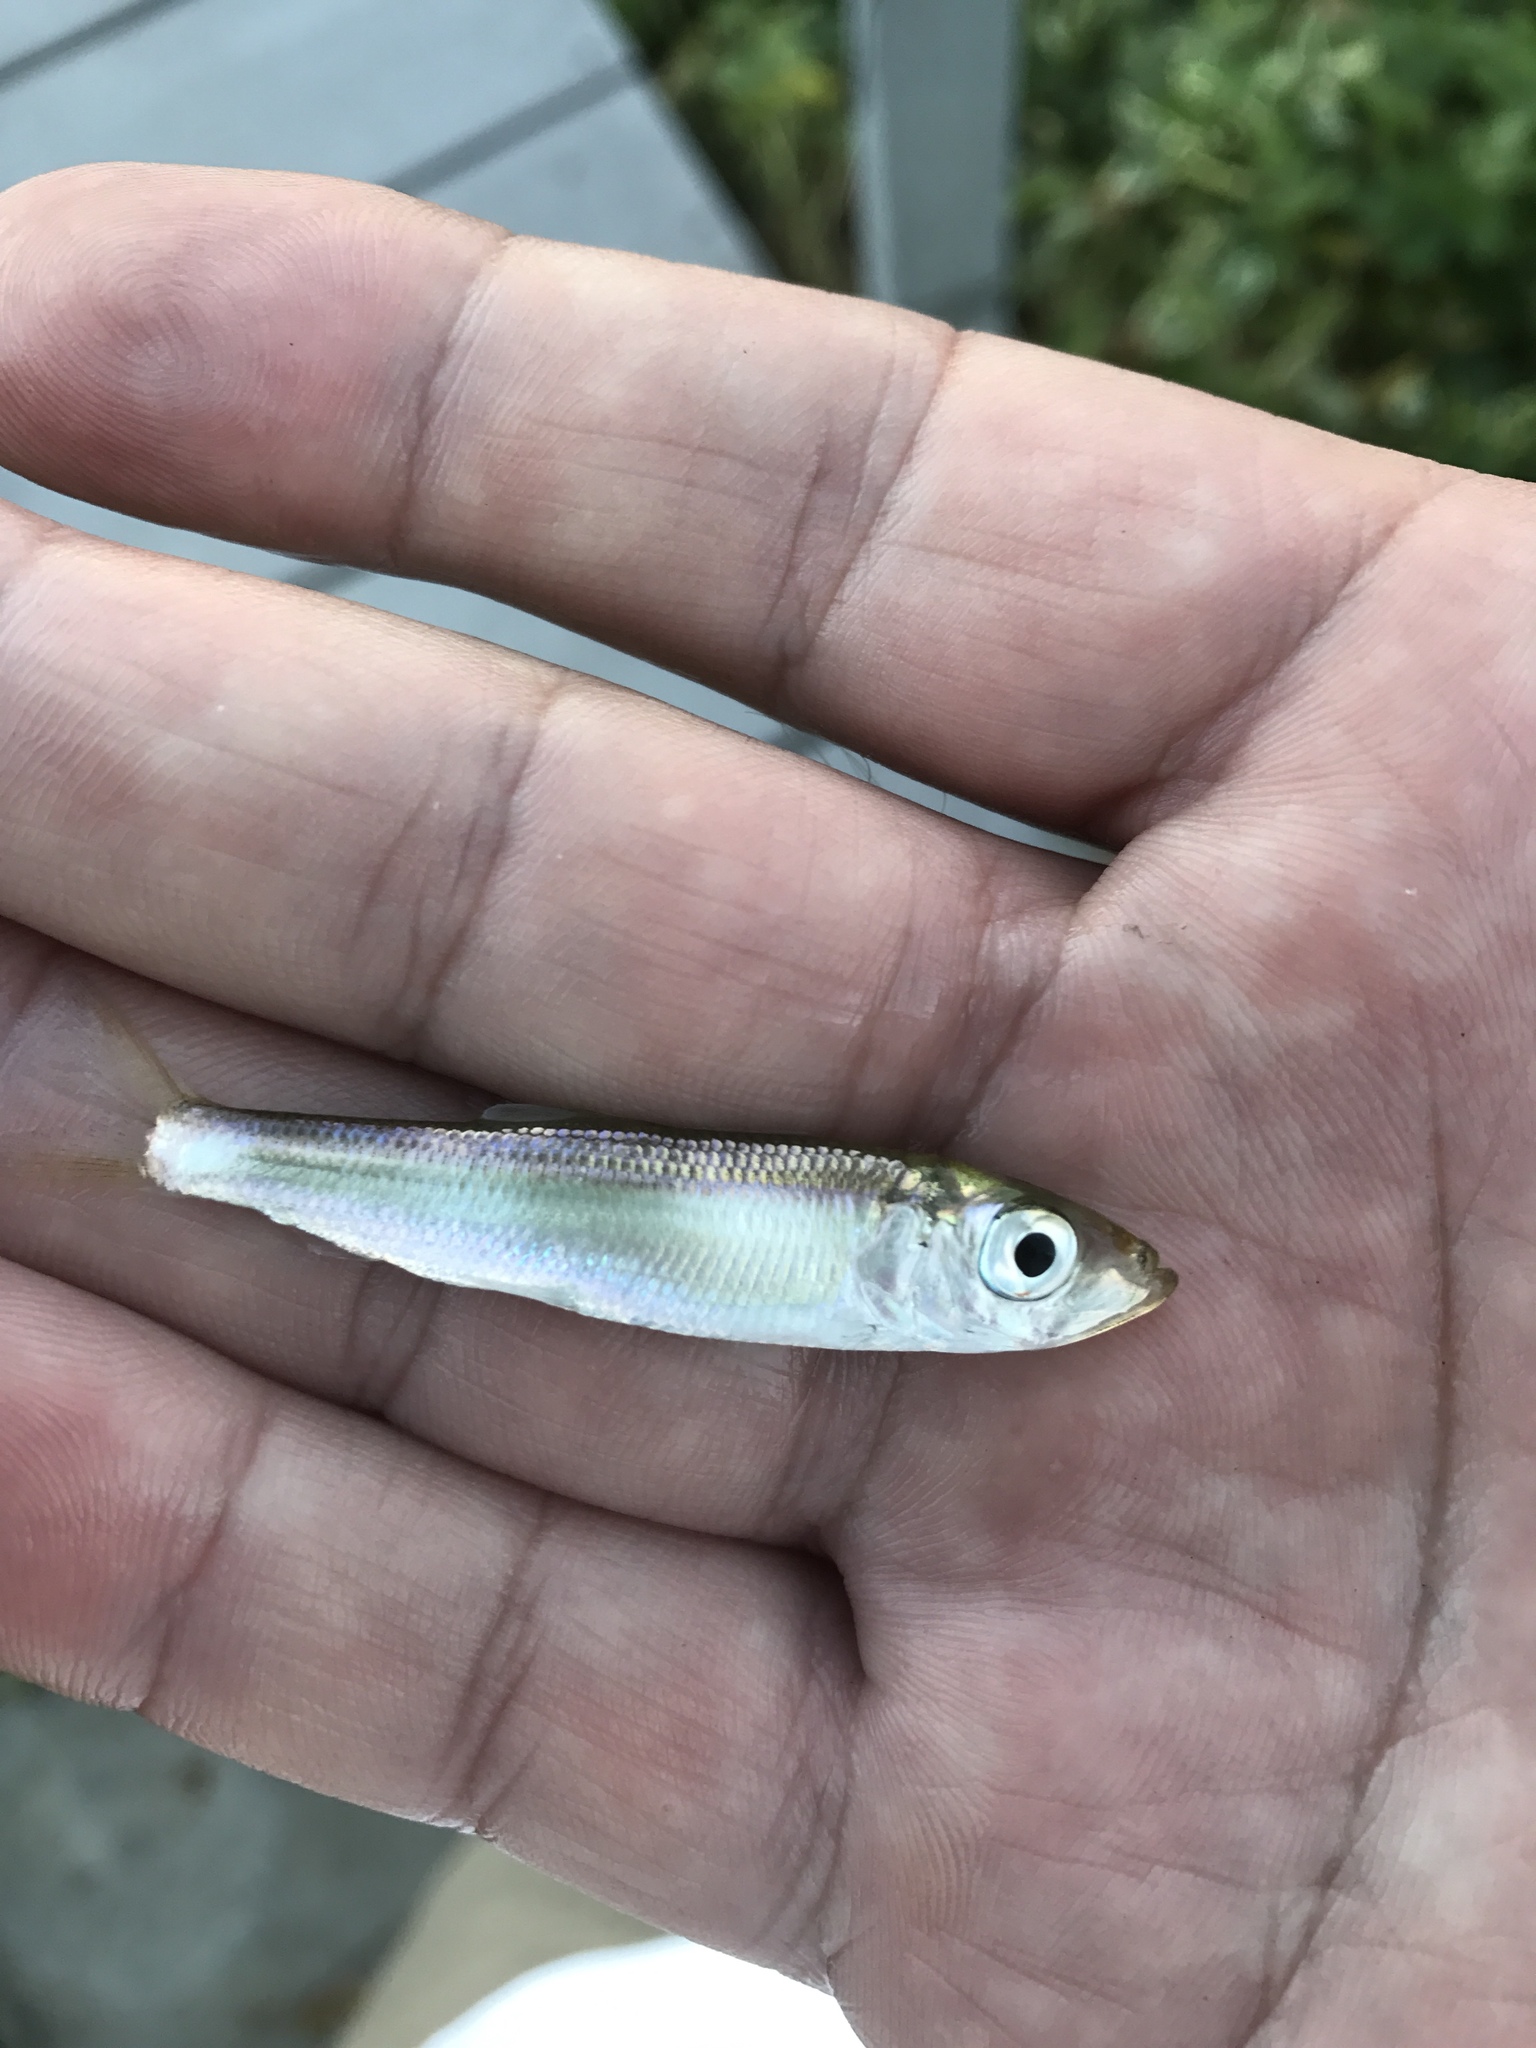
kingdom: Animalia
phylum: Chordata
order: Clupeiformes
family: Clupeidae
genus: Clupea
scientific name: Clupea pallasii
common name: Pacific herring
